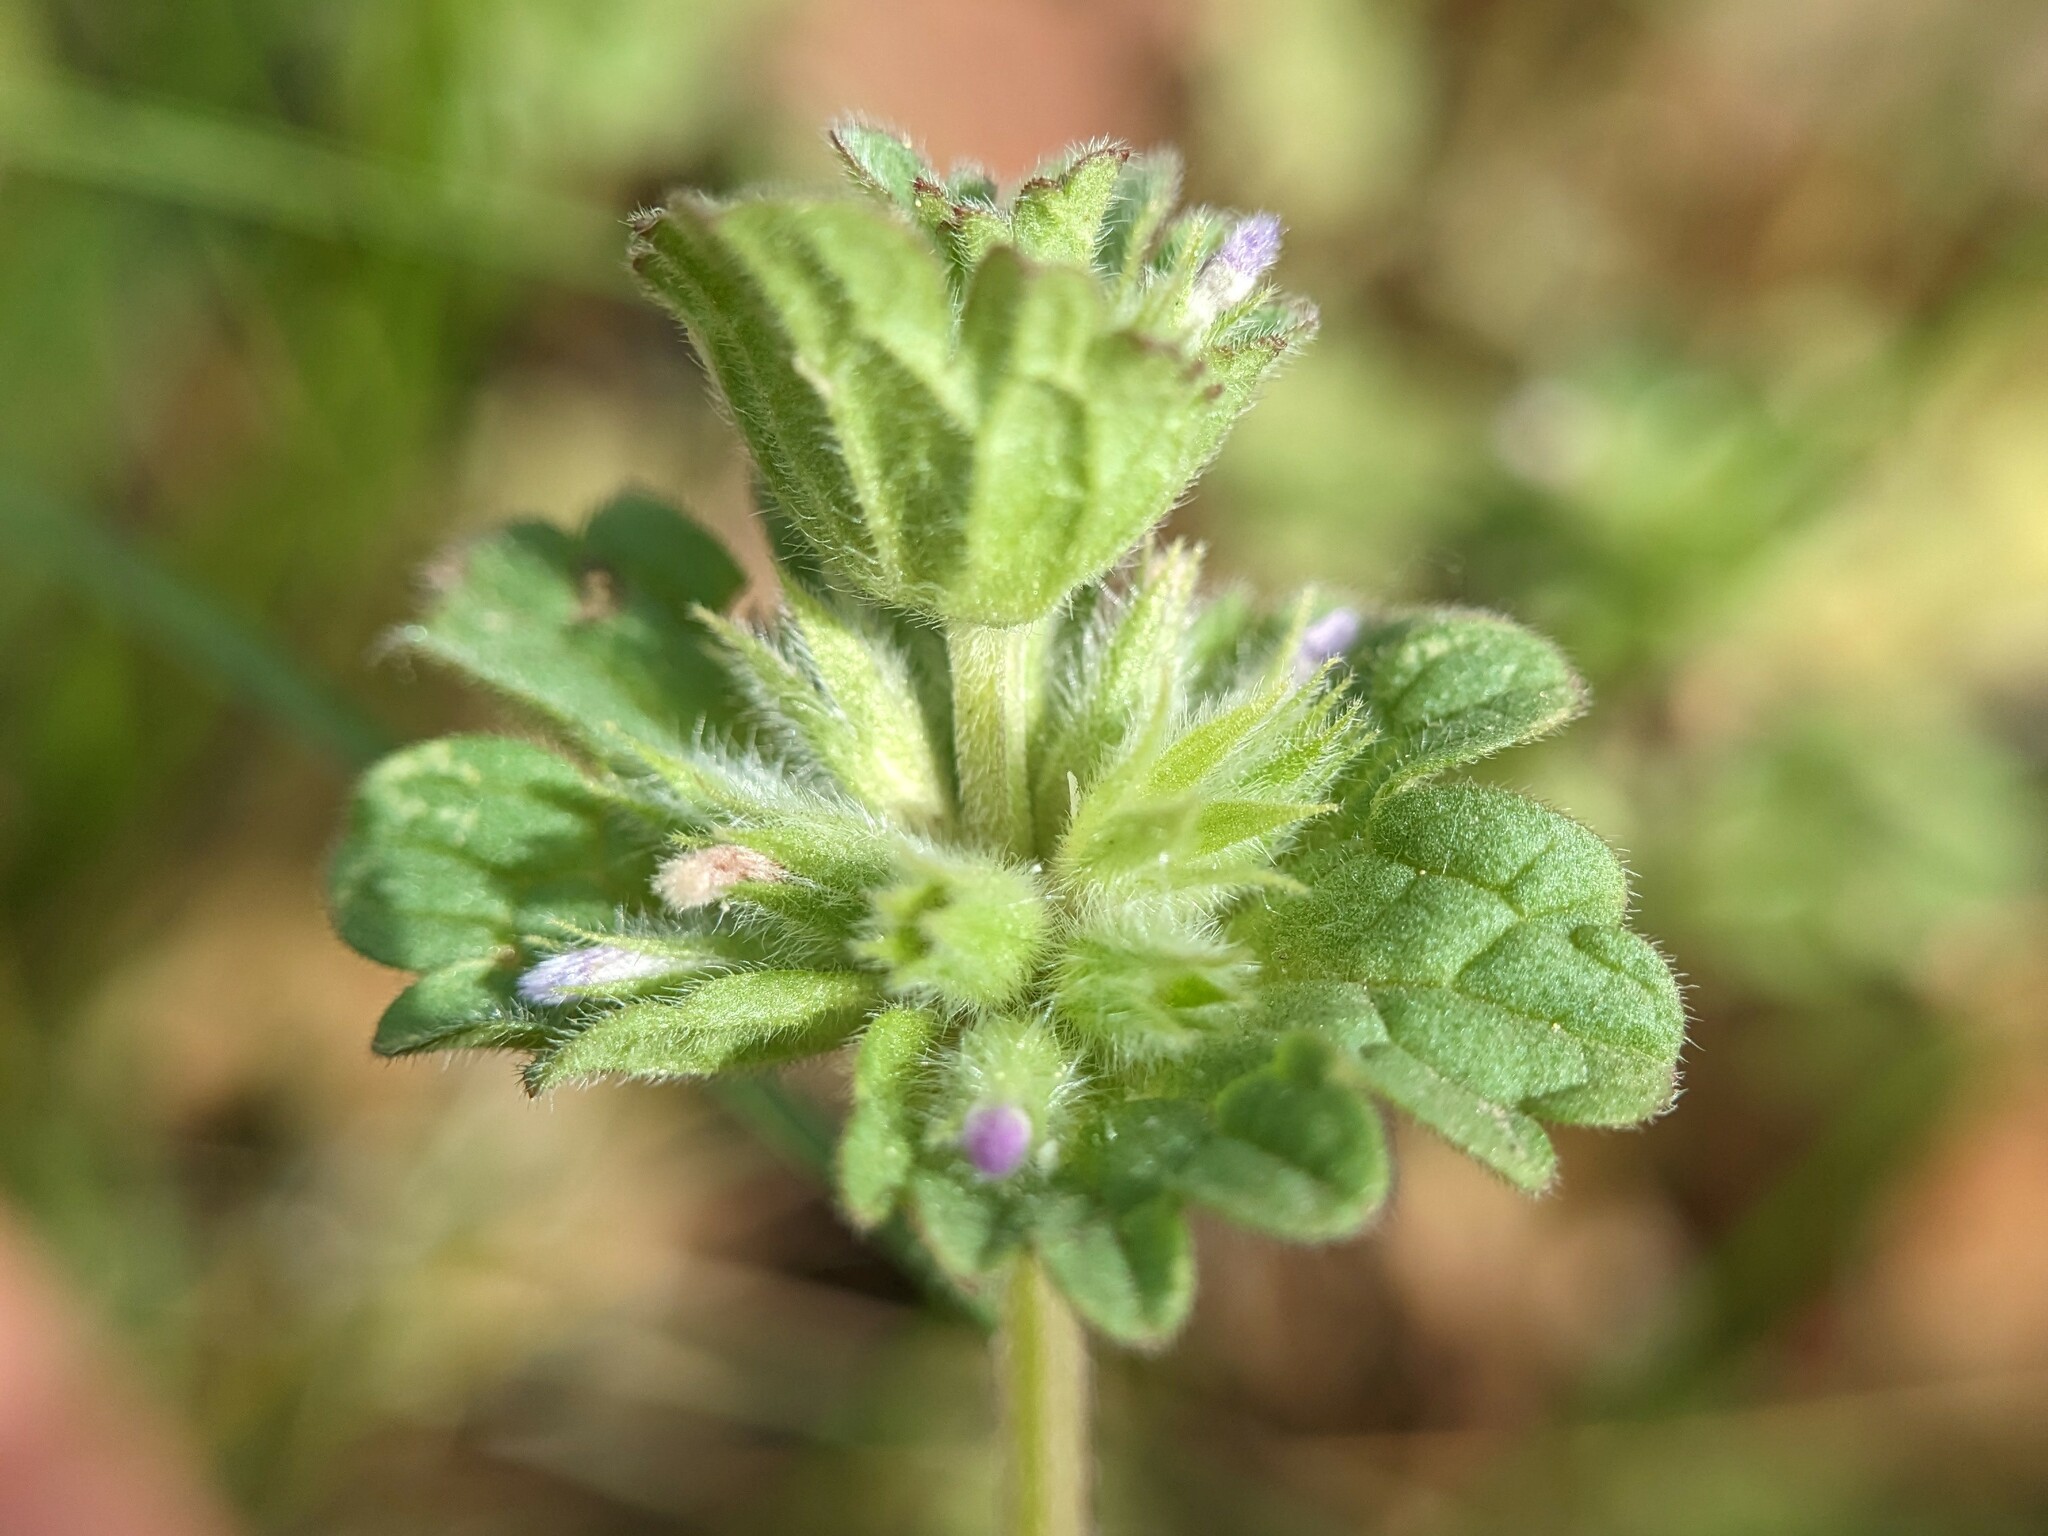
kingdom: Plantae
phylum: Tracheophyta
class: Magnoliopsida
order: Lamiales
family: Lamiaceae
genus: Lamium
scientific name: Lamium amplexicaule
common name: Henbit dead-nettle
